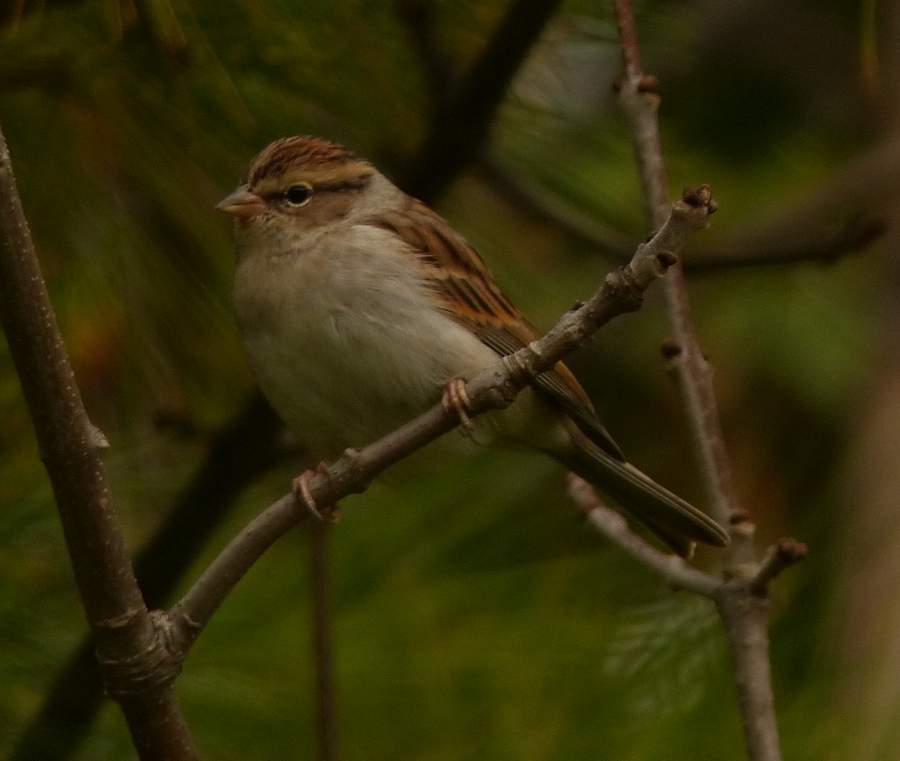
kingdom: Animalia
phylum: Chordata
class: Aves
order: Passeriformes
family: Passerellidae
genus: Spizella
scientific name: Spizella passerina
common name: Chipping sparrow
